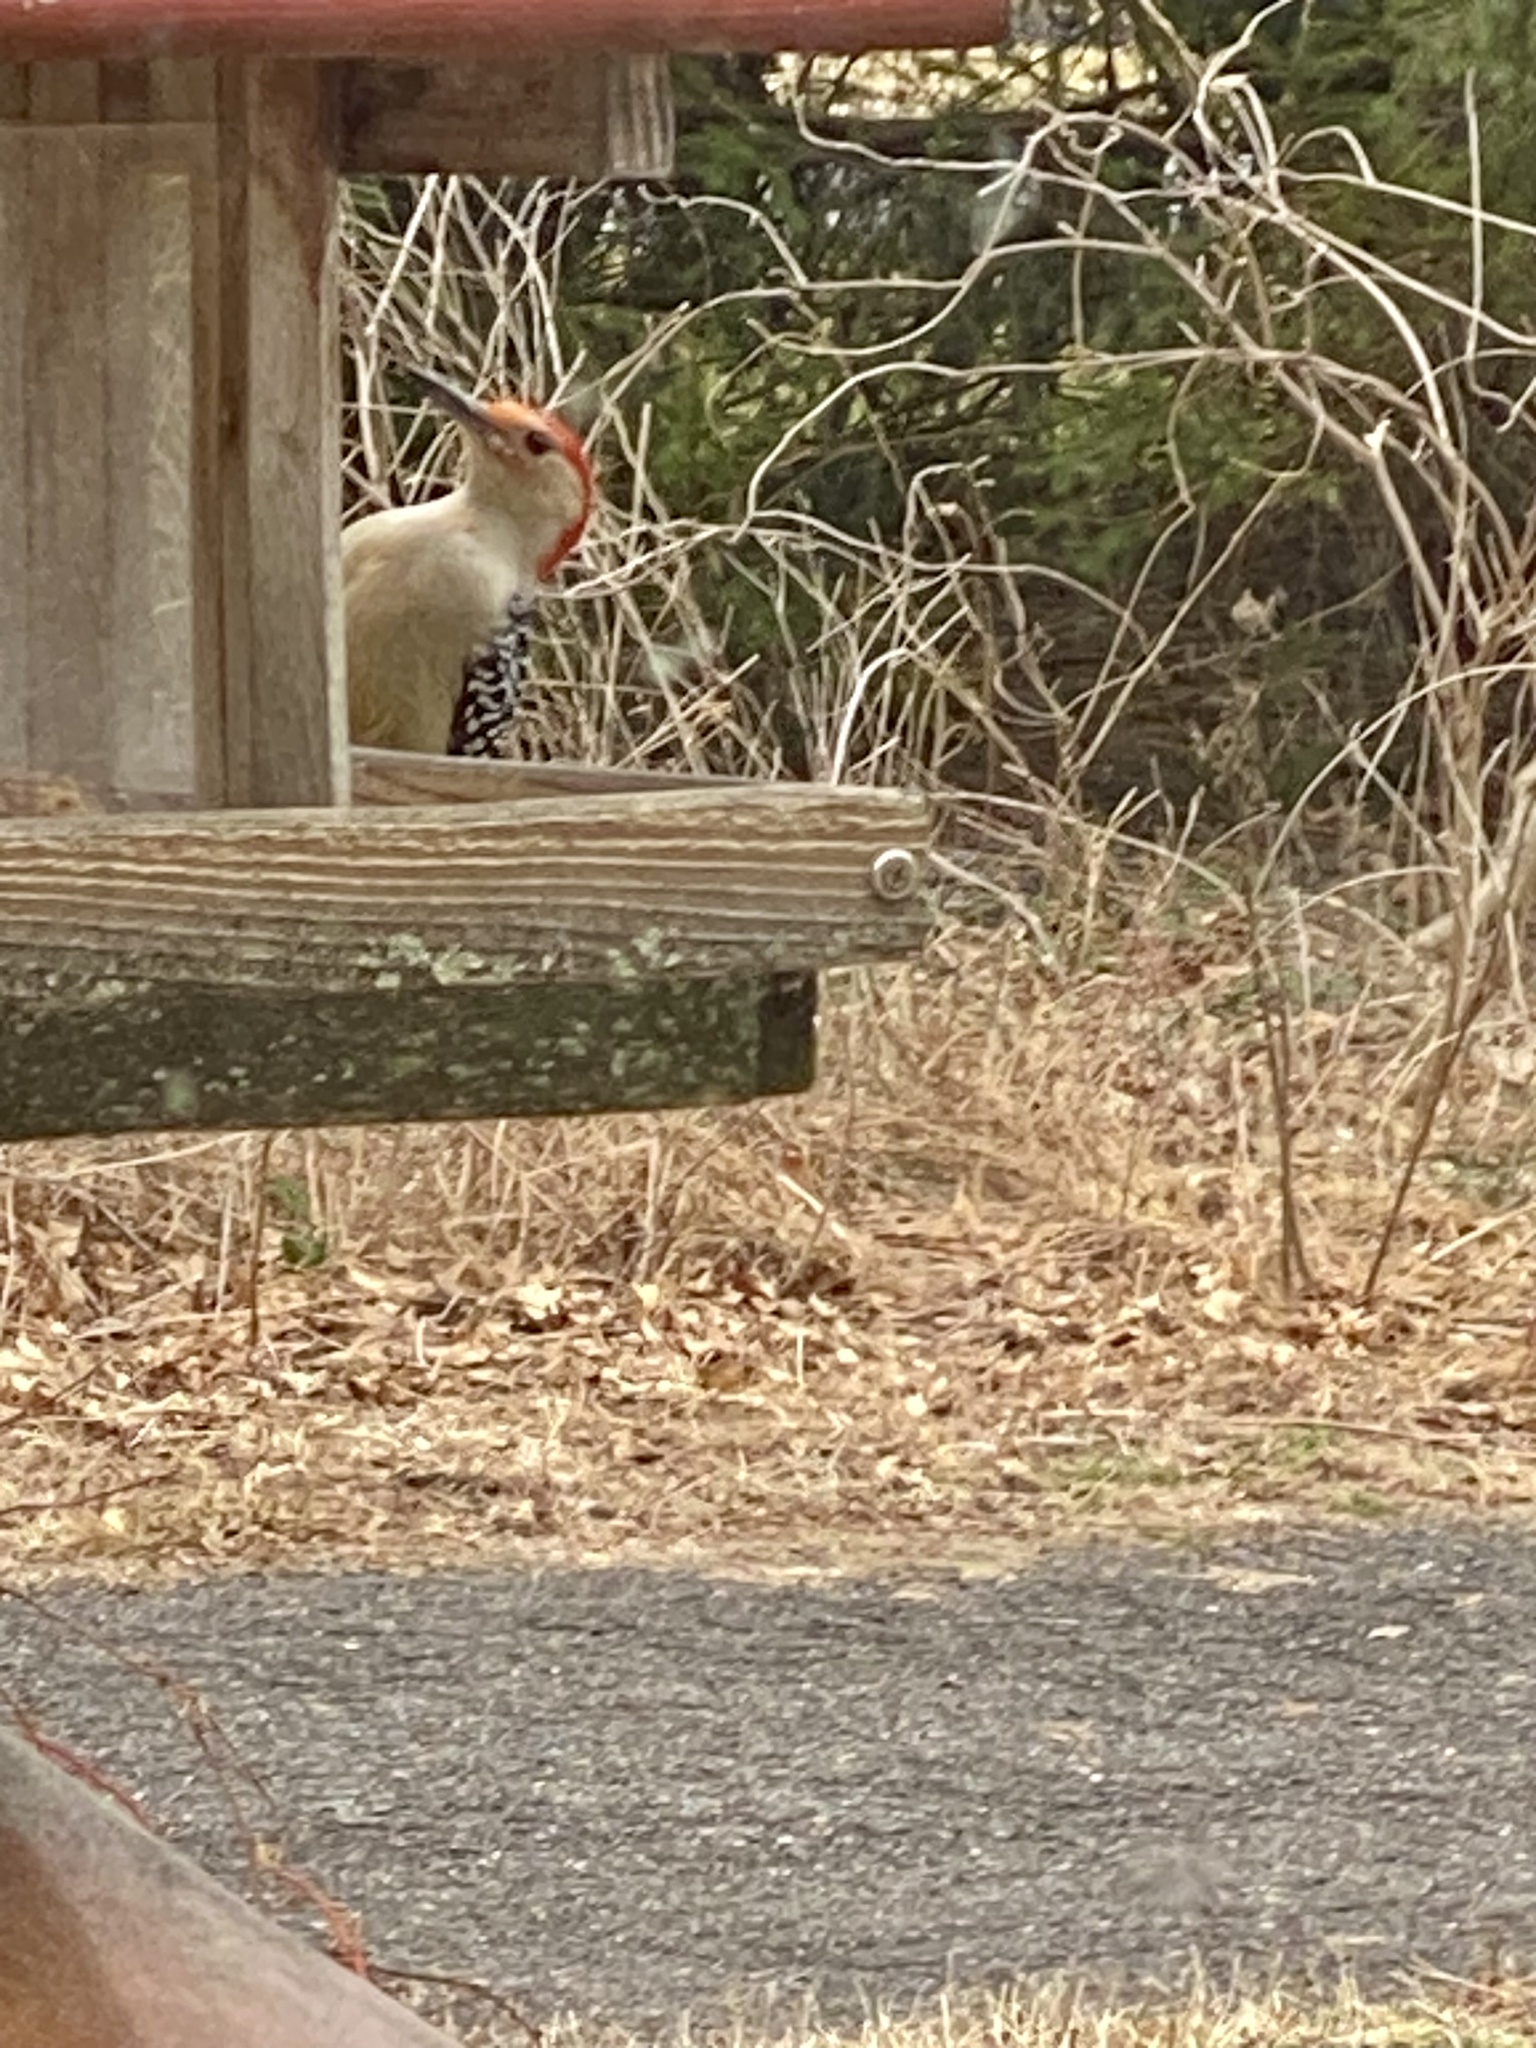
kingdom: Animalia
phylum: Chordata
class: Aves
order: Piciformes
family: Picidae
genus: Melanerpes
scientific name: Melanerpes carolinus
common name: Red-bellied woodpecker
